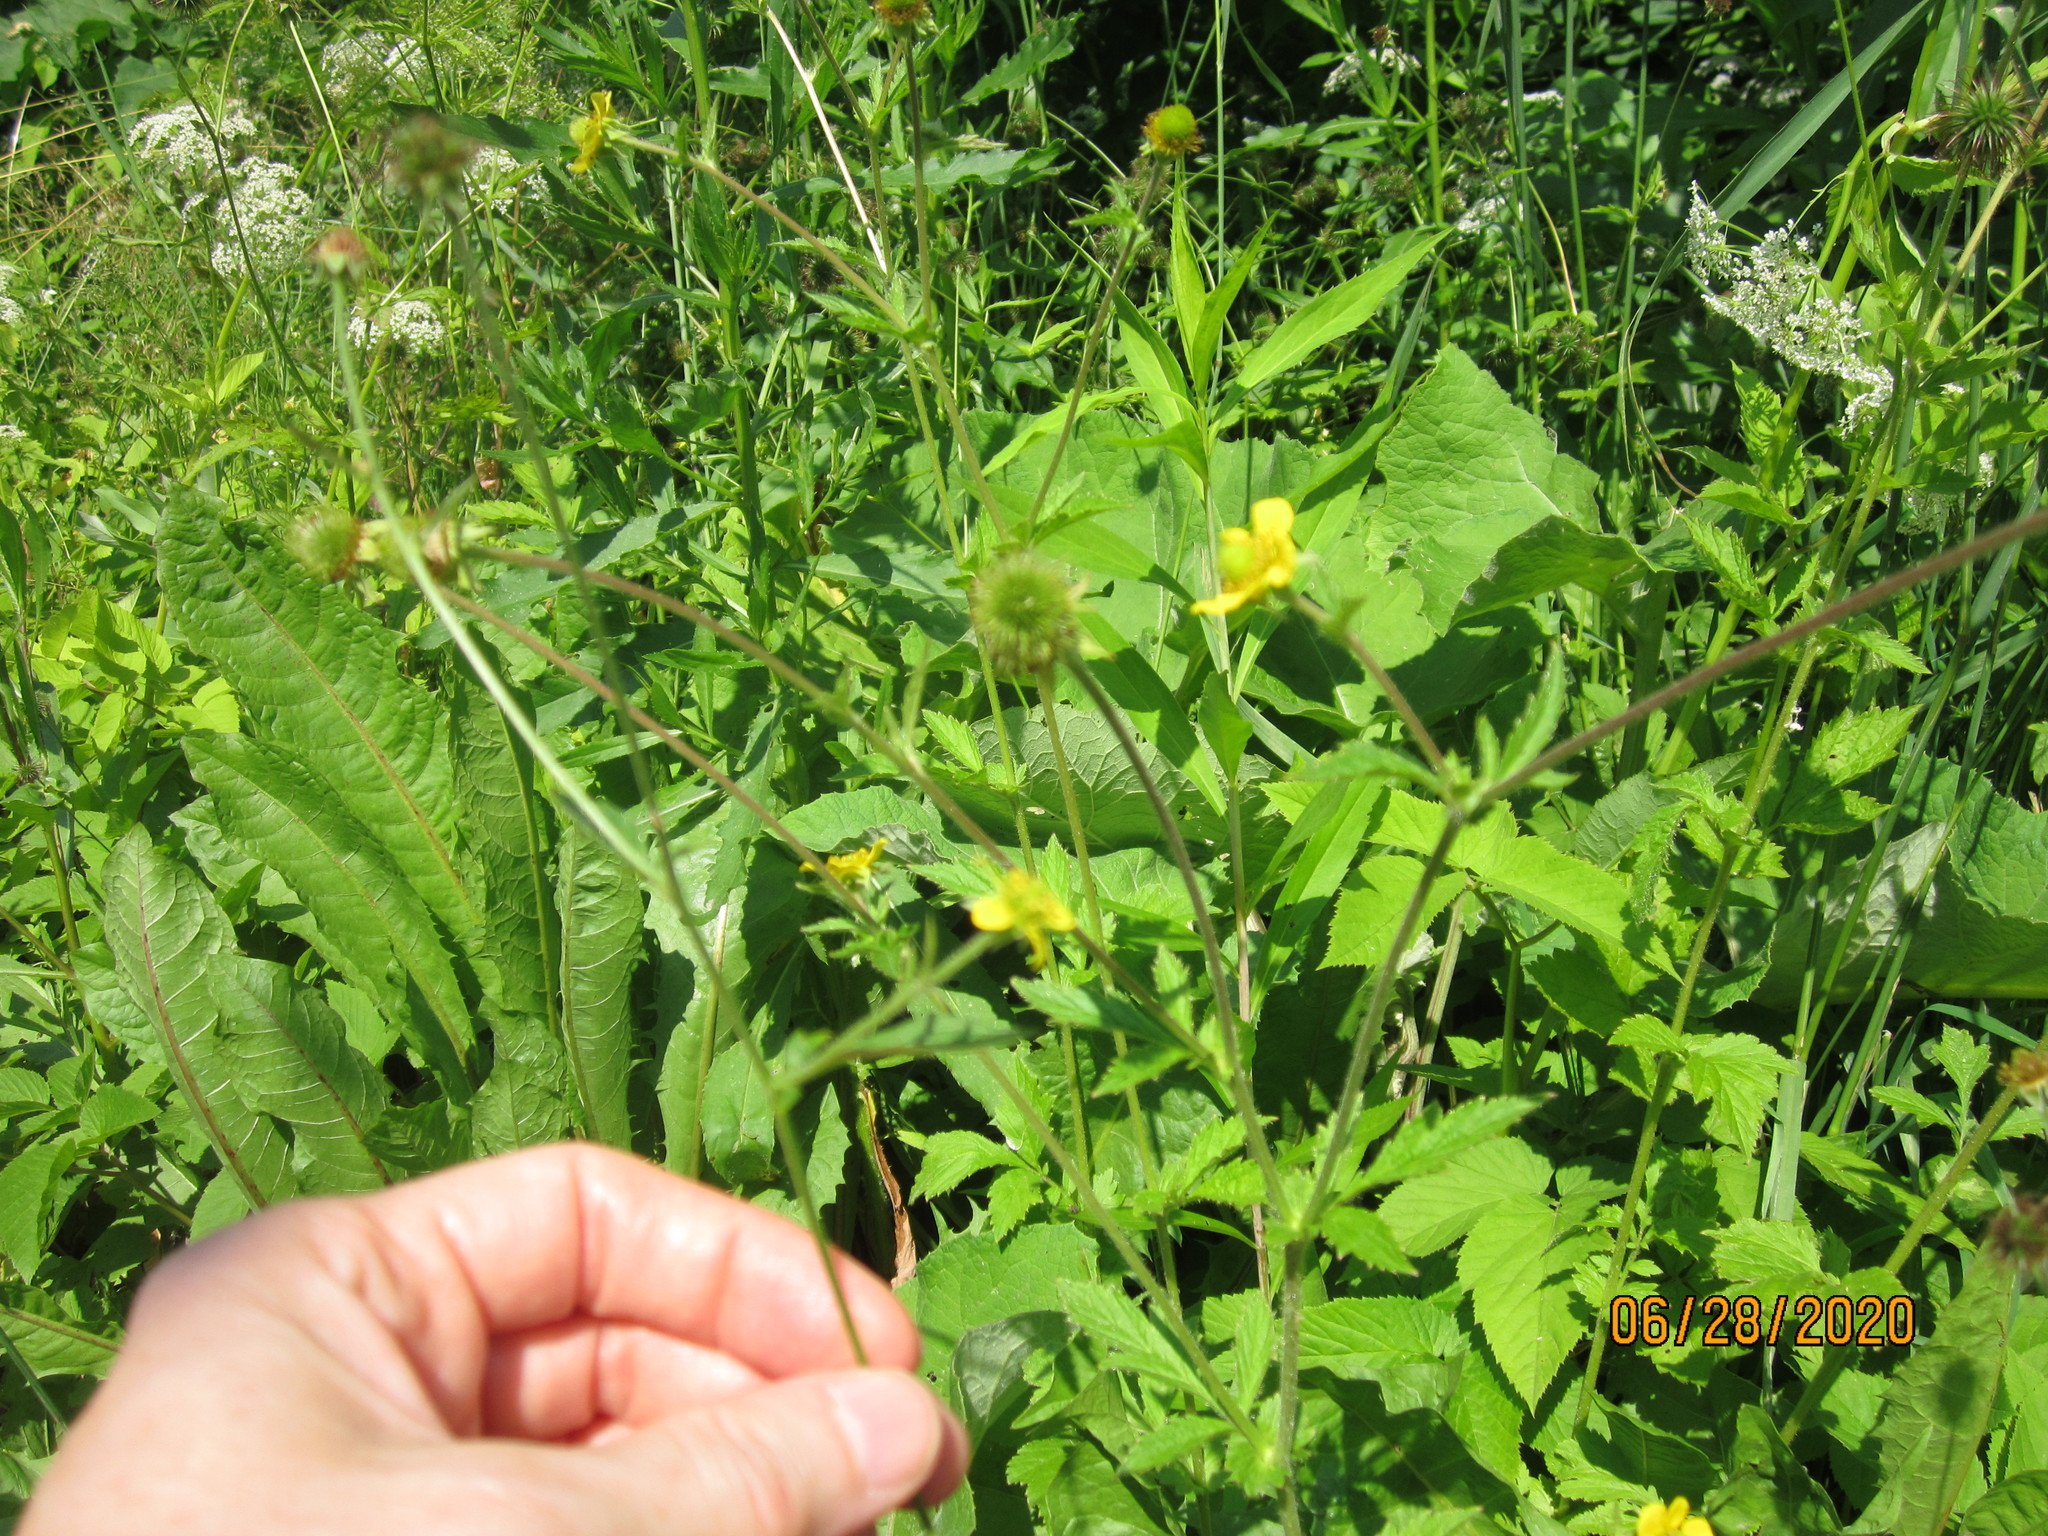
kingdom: Plantae
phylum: Tracheophyta
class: Magnoliopsida
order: Rosales
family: Rosaceae
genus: Geum
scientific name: Geum aleppicum
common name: Yellow avens
